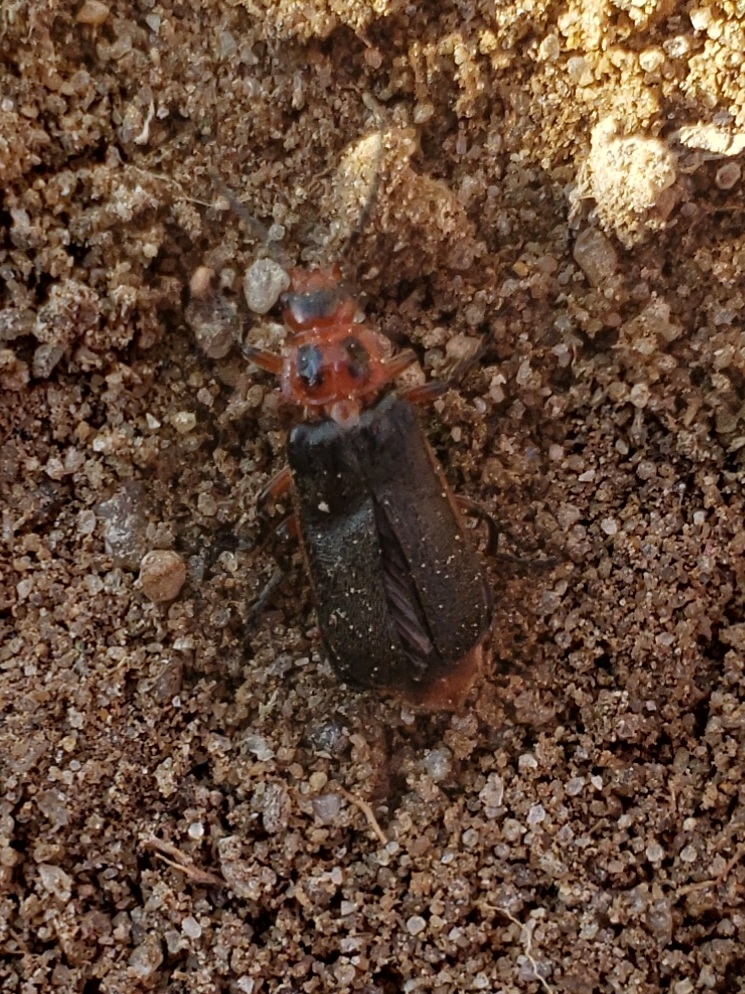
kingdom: Animalia
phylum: Arthropoda
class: Insecta
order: Coleoptera
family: Cantharidae
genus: Atalantycha
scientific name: Atalantycha bilineata
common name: Two-lined leatherwing
